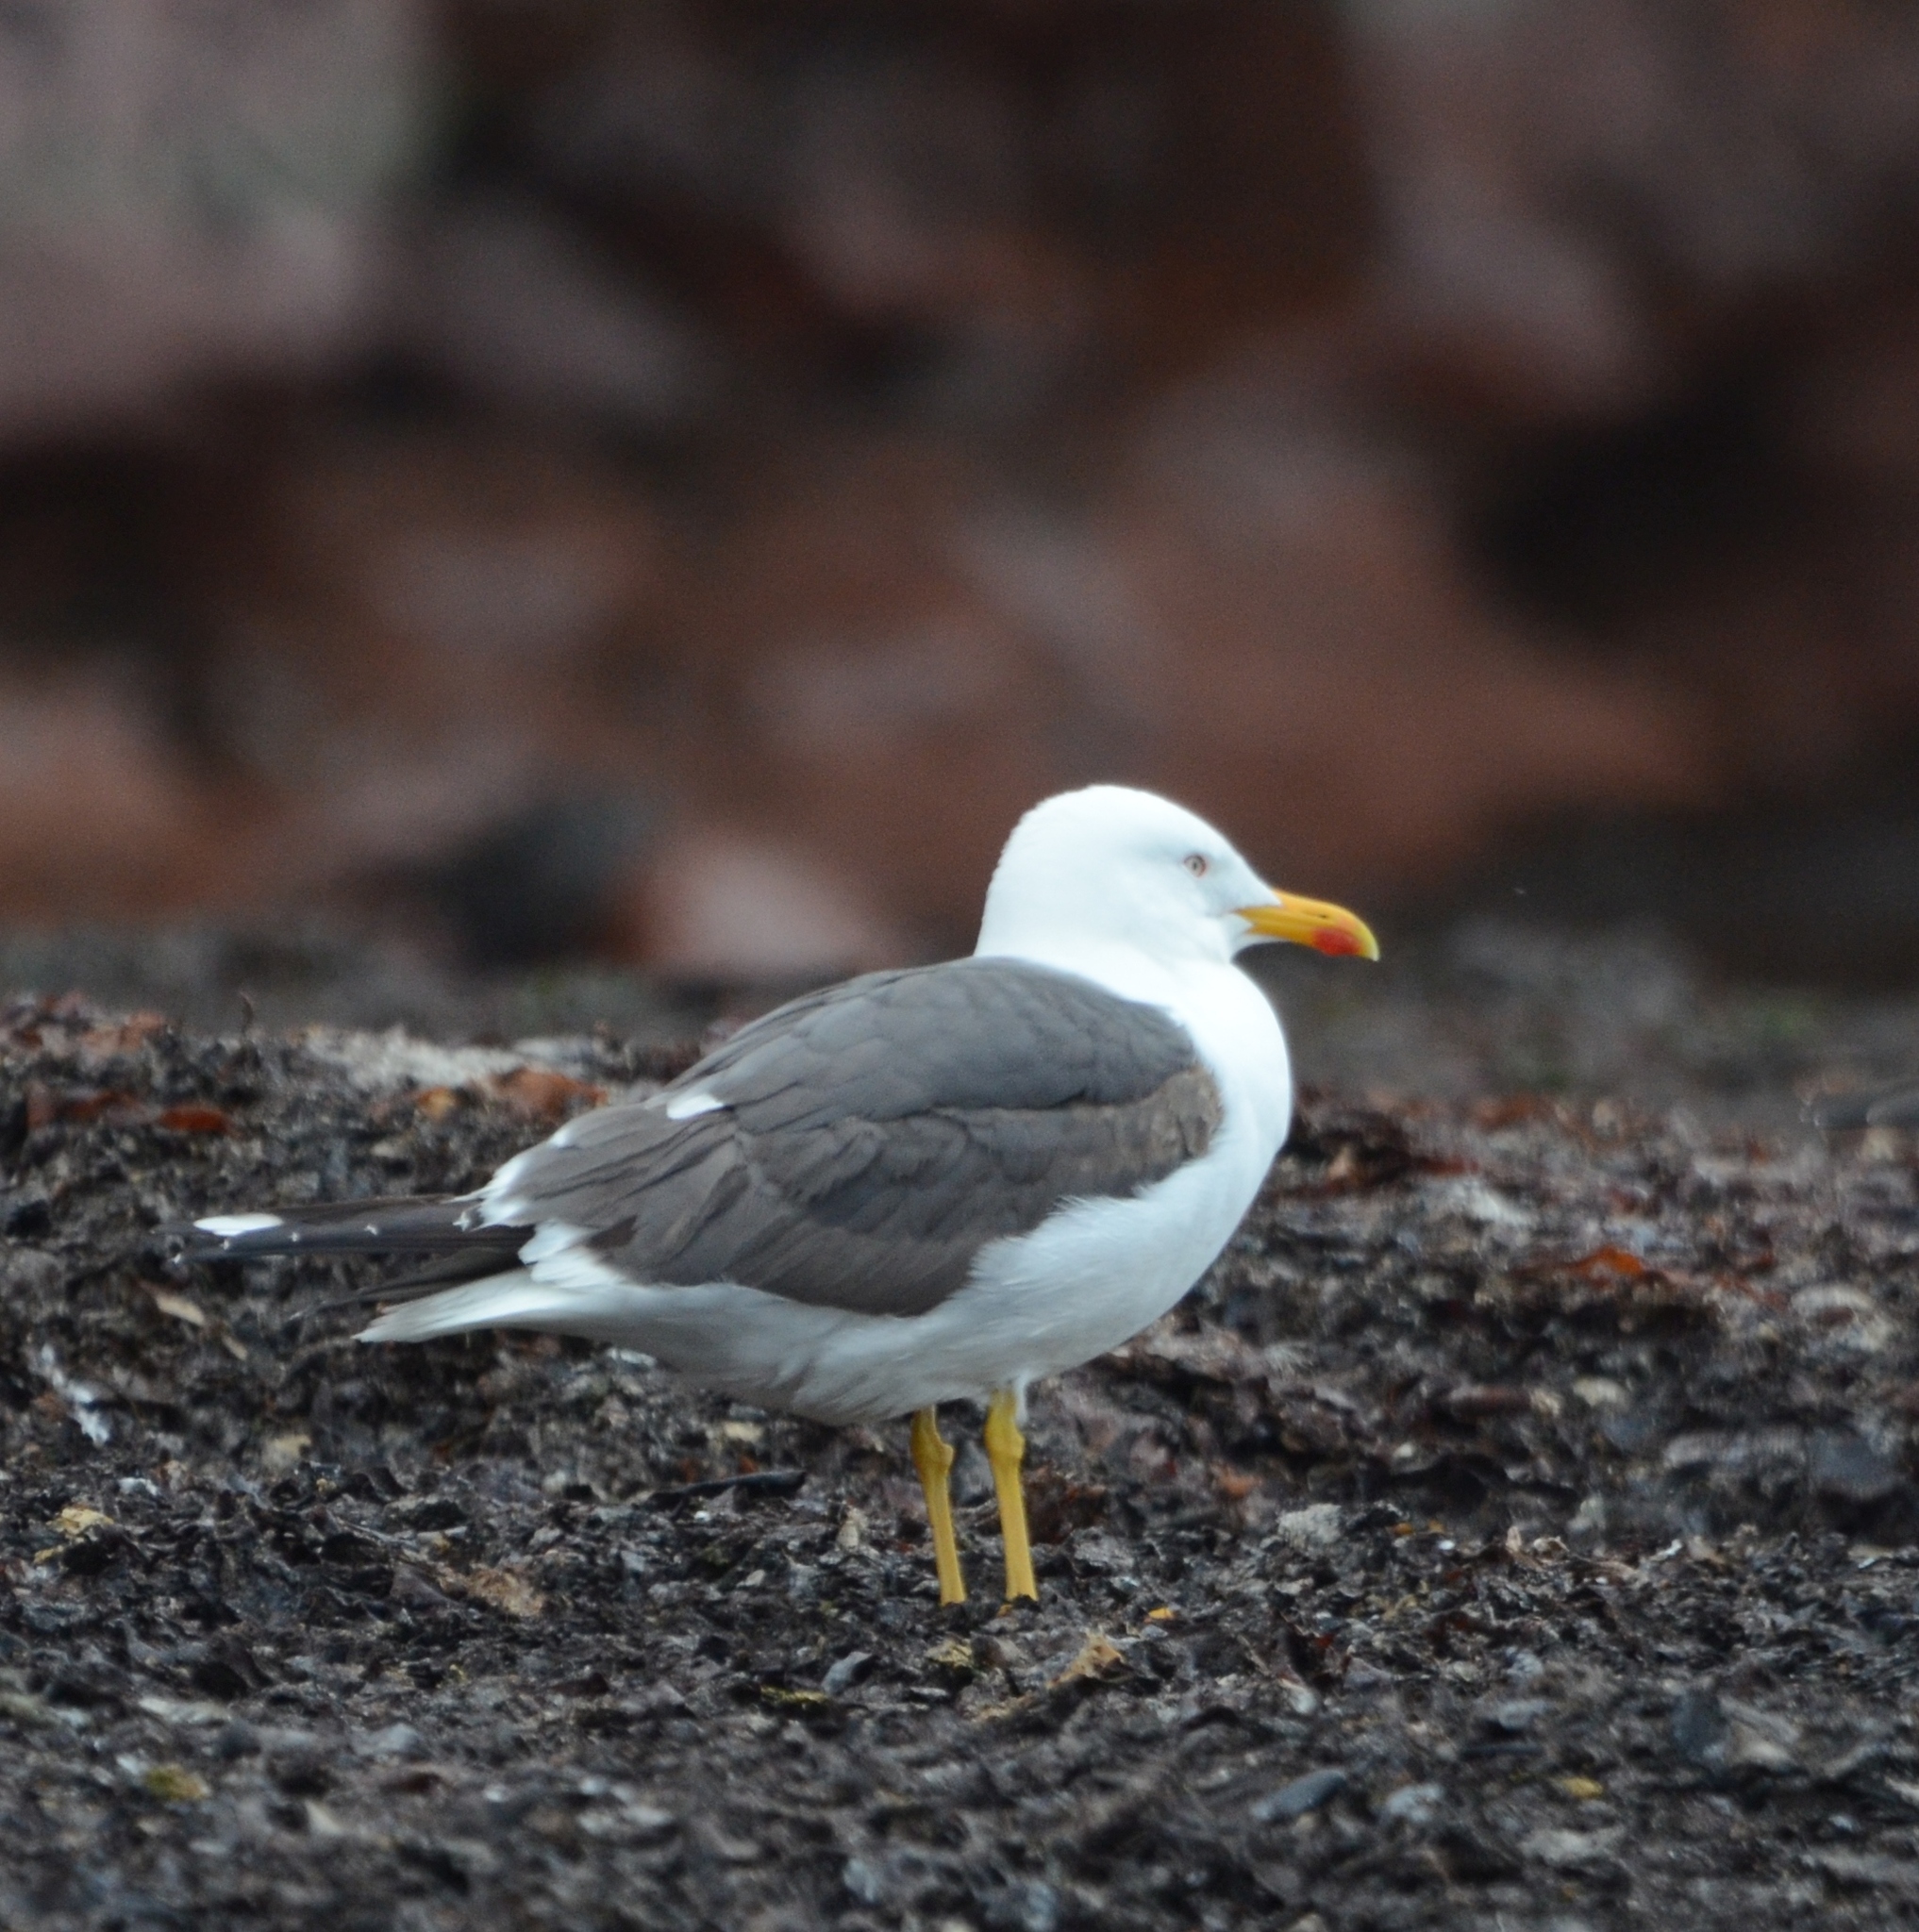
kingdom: Animalia
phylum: Chordata
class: Aves
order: Charadriiformes
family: Laridae
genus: Larus
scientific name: Larus fuscus
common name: Lesser black-backed gull
